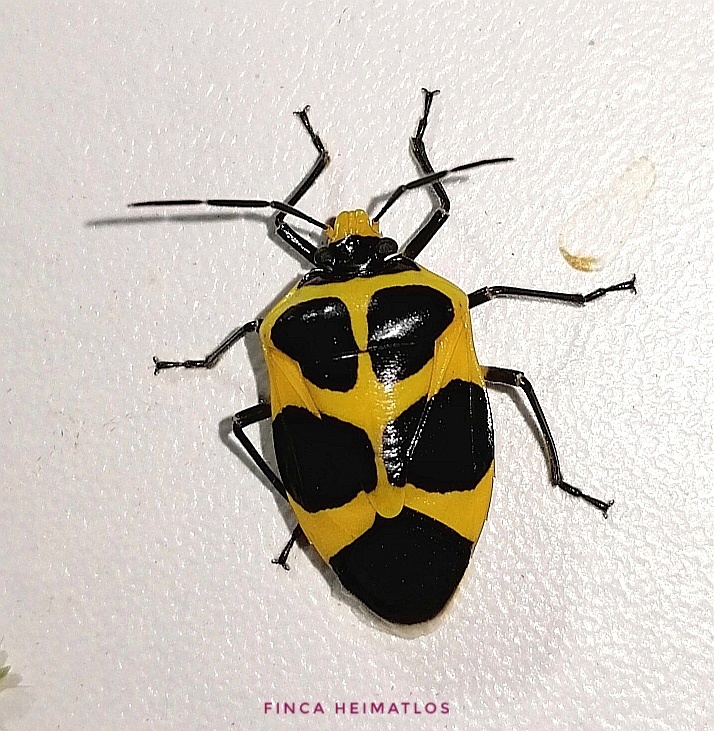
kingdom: Animalia
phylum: Arthropoda
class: Insecta
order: Hemiptera
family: Pentatomidae
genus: Arocera
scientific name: Arocera apta
